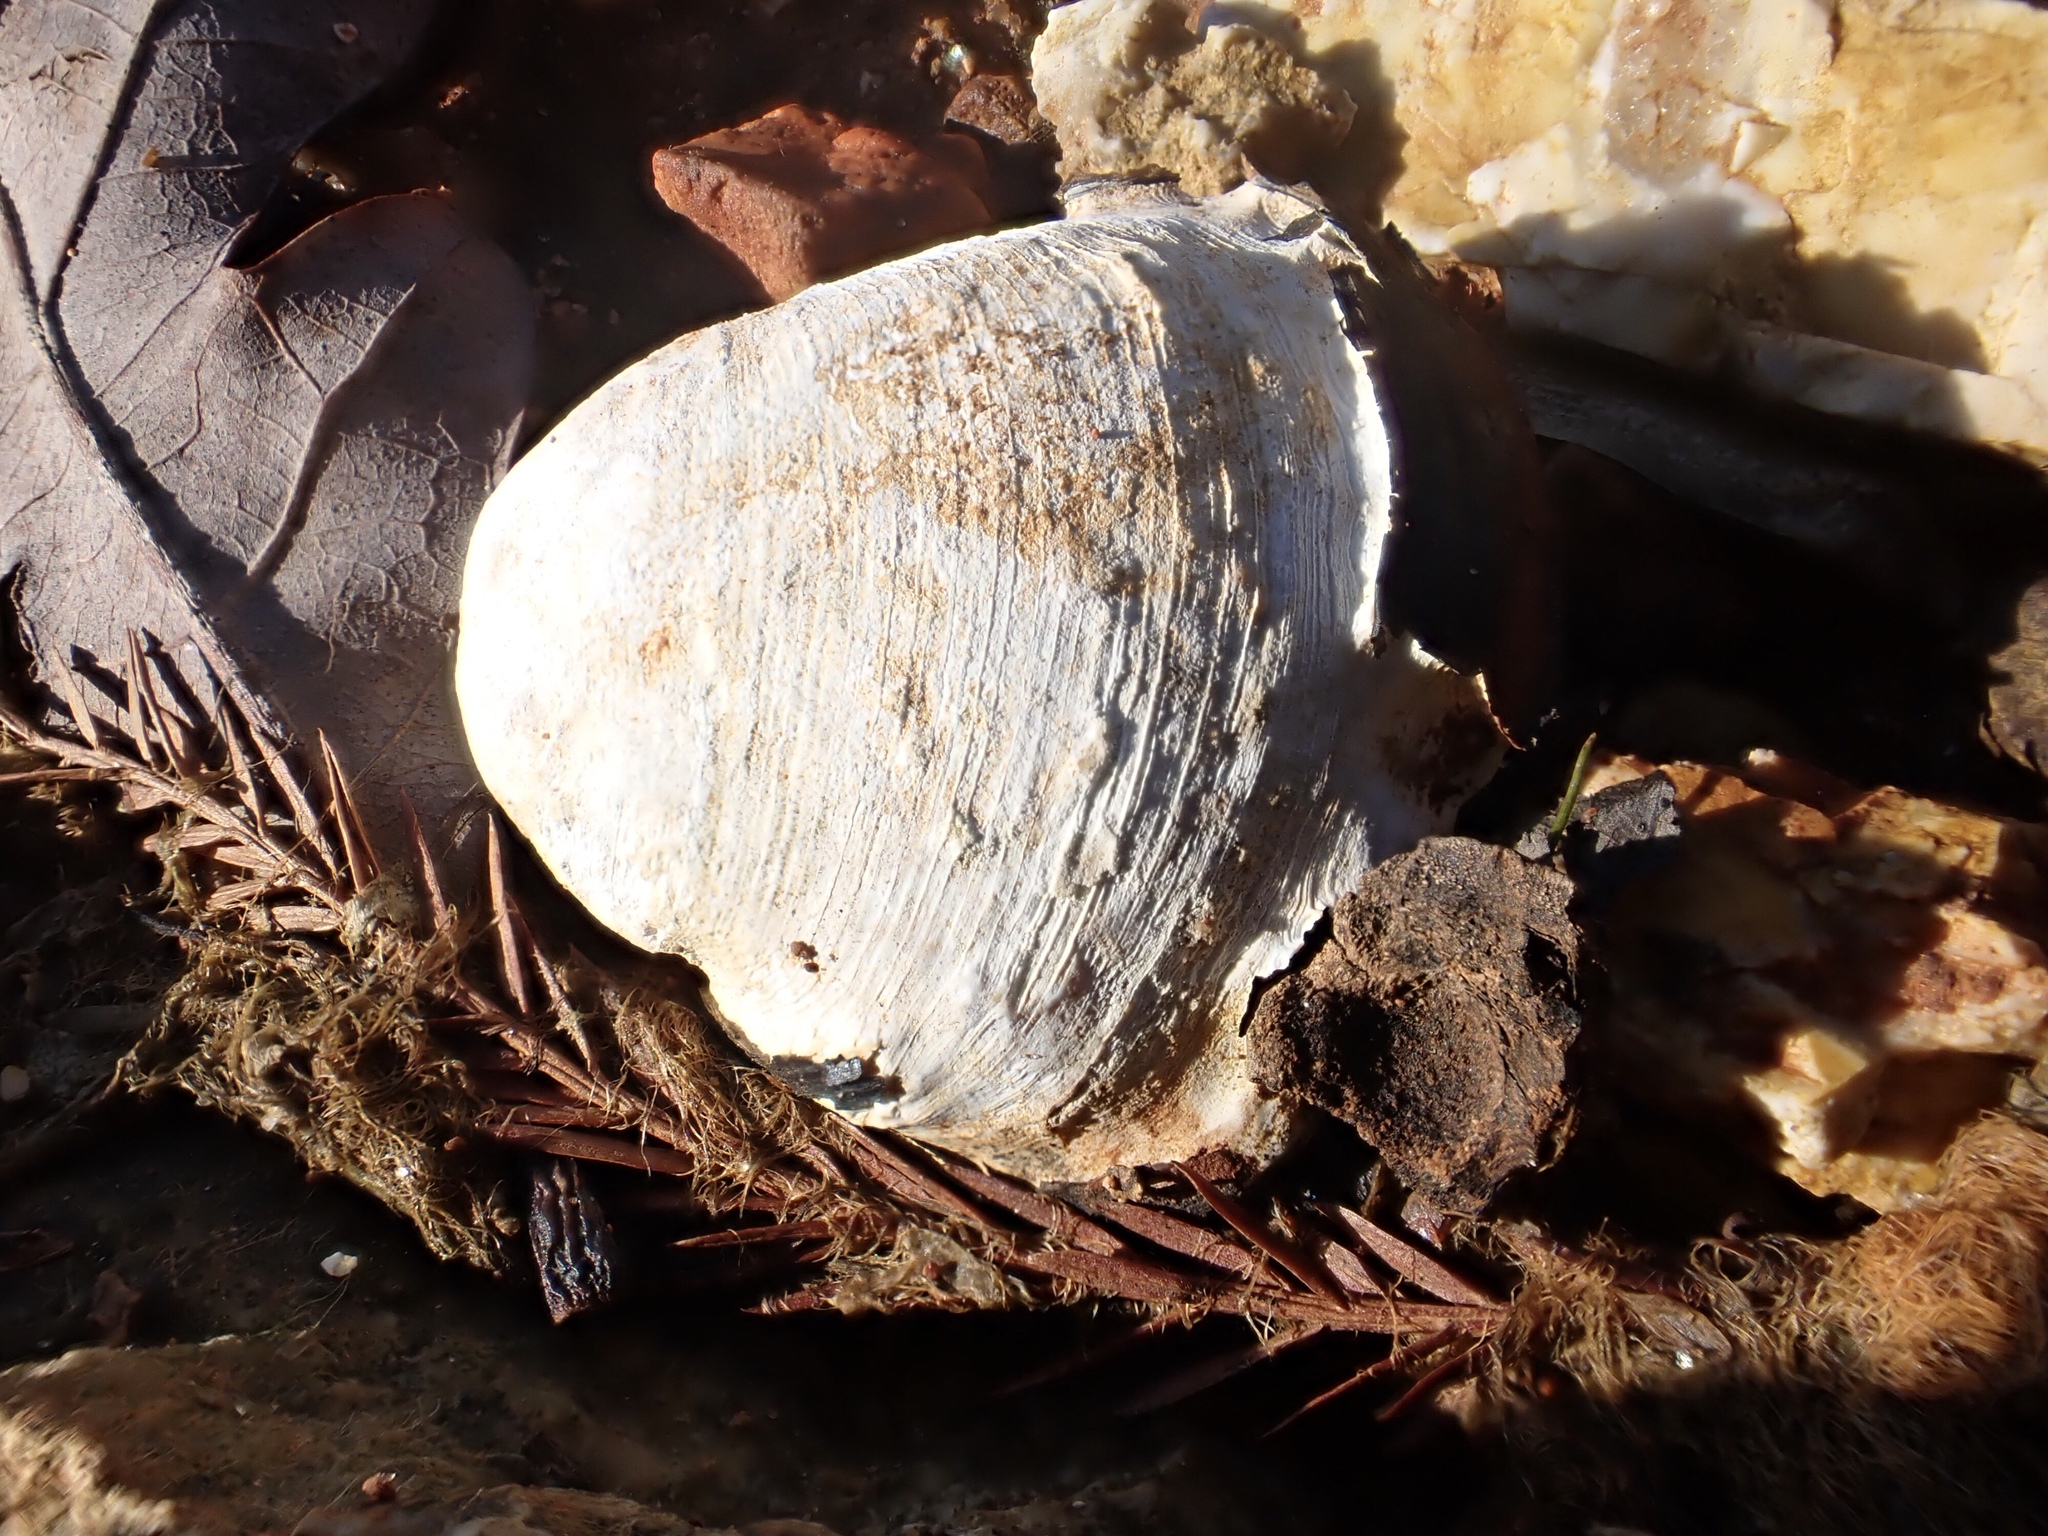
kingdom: Animalia
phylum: Mollusca
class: Bivalvia
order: Venerida
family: Cyrenidae
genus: Corbicula
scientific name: Corbicula fluminea
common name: Asian clam
